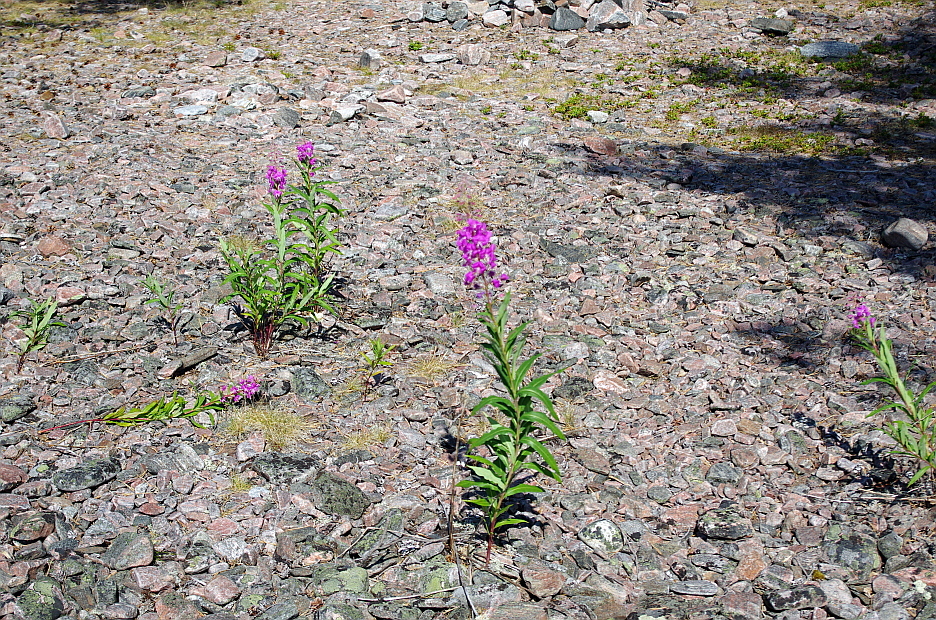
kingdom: Plantae
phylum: Tracheophyta
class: Magnoliopsida
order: Myrtales
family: Onagraceae
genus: Chamaenerion
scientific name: Chamaenerion angustifolium
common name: Fireweed
